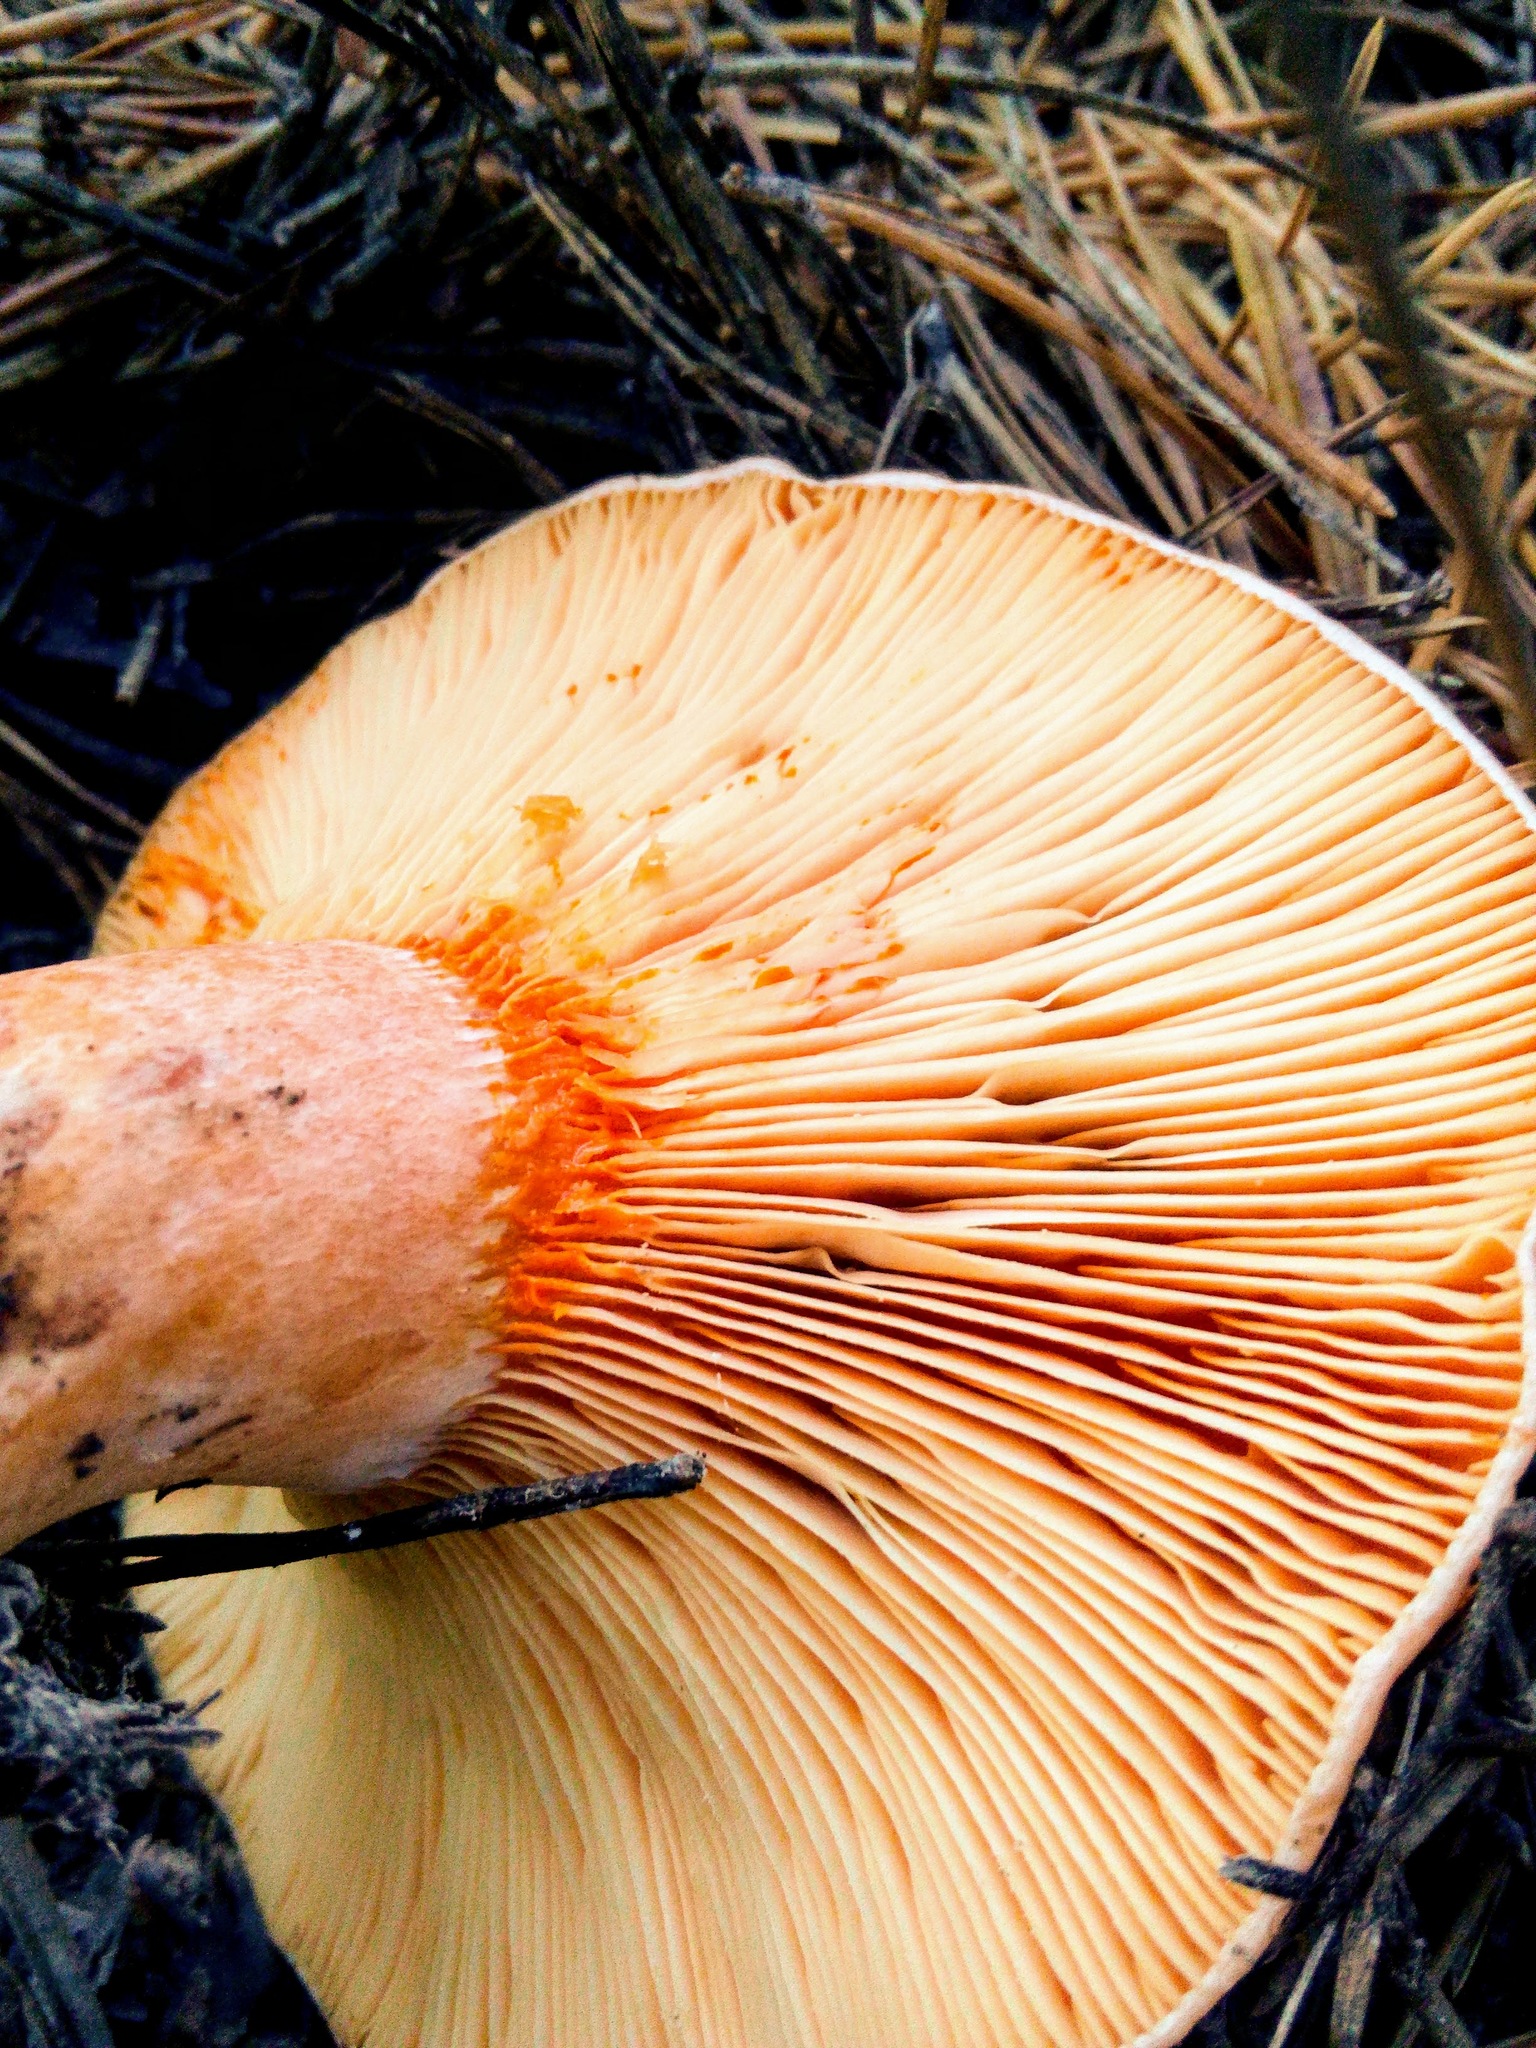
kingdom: Fungi
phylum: Basidiomycota
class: Agaricomycetes
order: Russulales
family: Russulaceae
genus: Lactarius
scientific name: Lactarius deliciosus
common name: Saffron milk-cap
